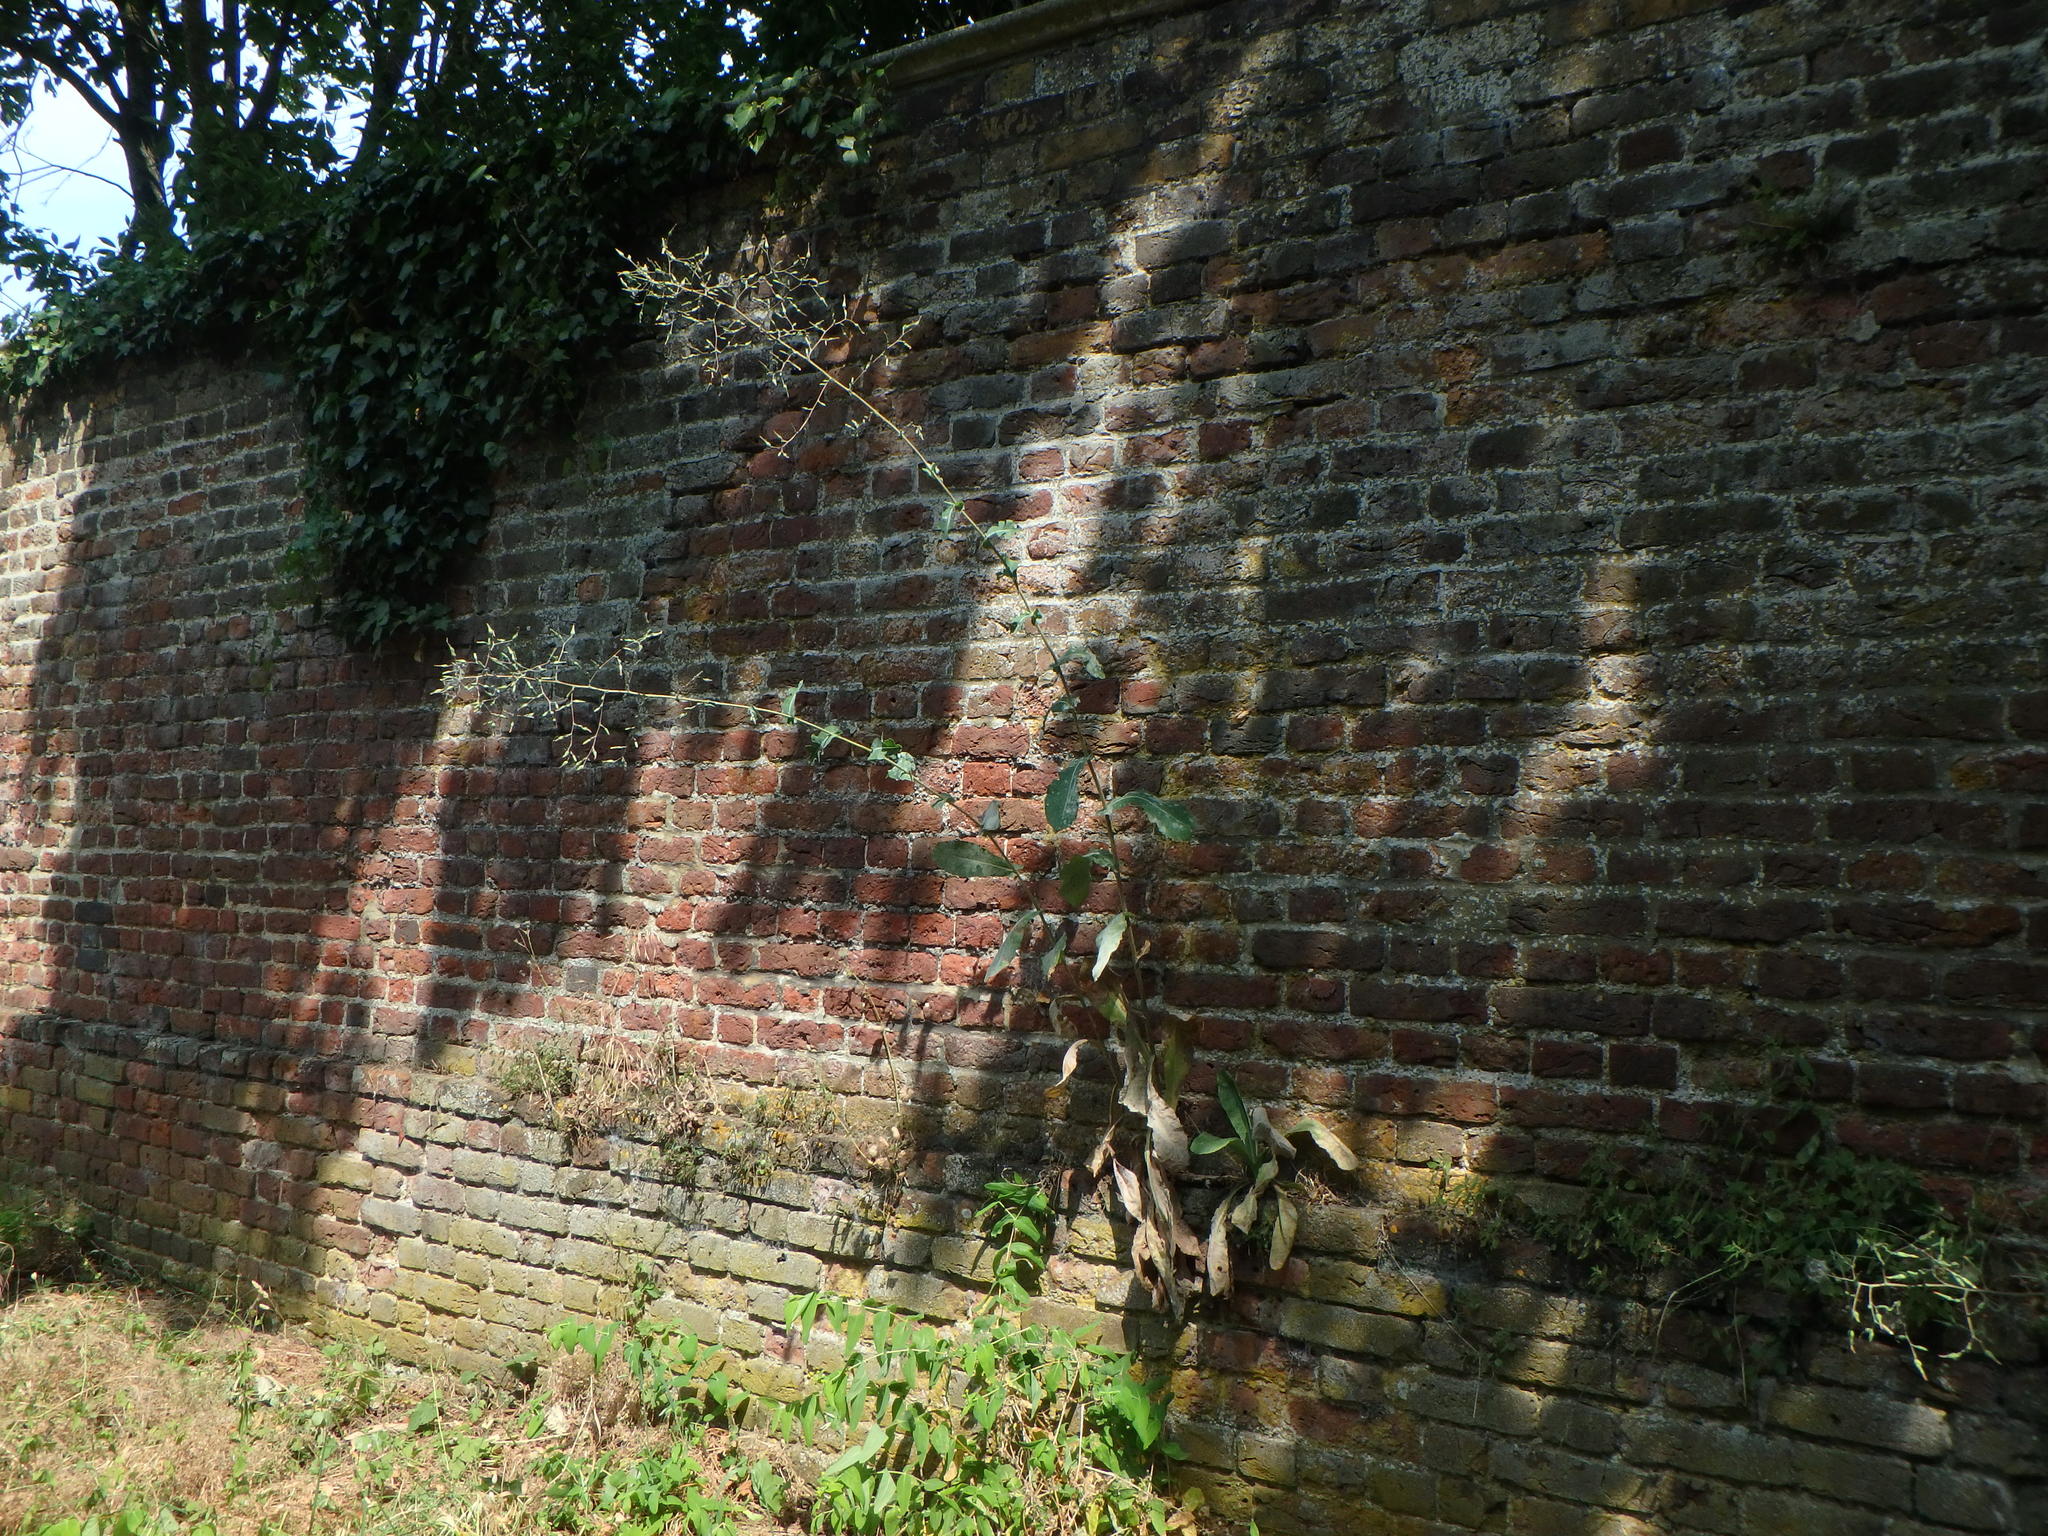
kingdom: Plantae
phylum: Tracheophyta
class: Magnoliopsida
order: Asterales
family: Asteraceae
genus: Lactuca
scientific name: Lactuca virosa
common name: Great lettuce
